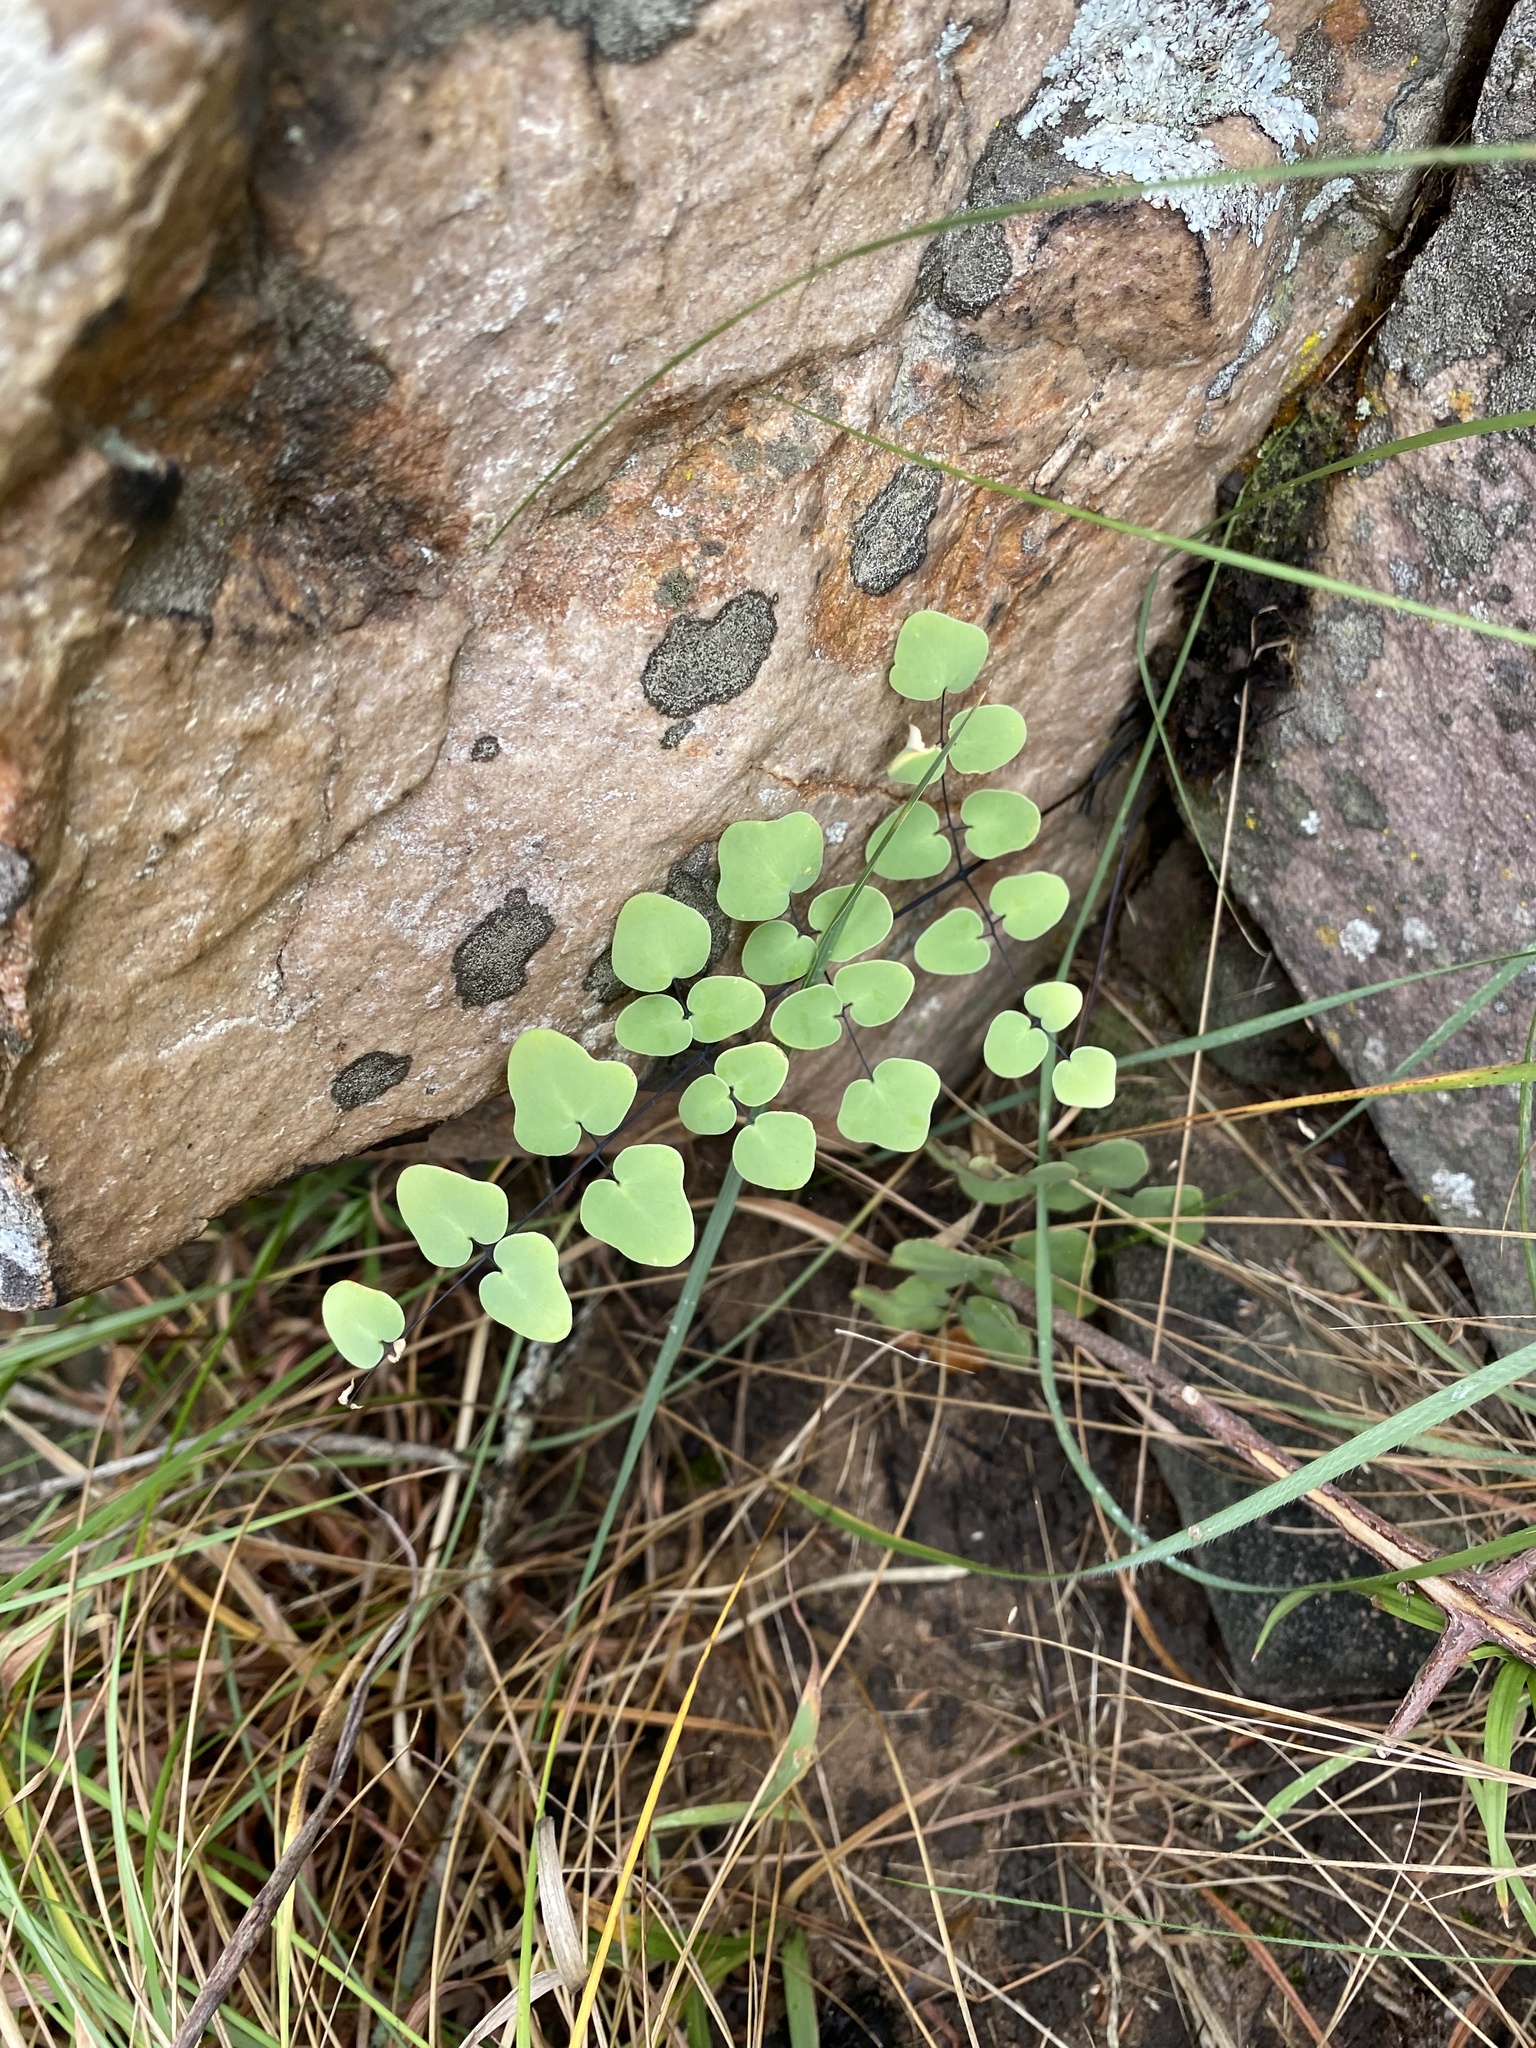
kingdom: Plantae
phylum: Tracheophyta
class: Polypodiopsida
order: Polypodiales
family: Pteridaceae
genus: Pellaea
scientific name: Pellaea calomelanos
